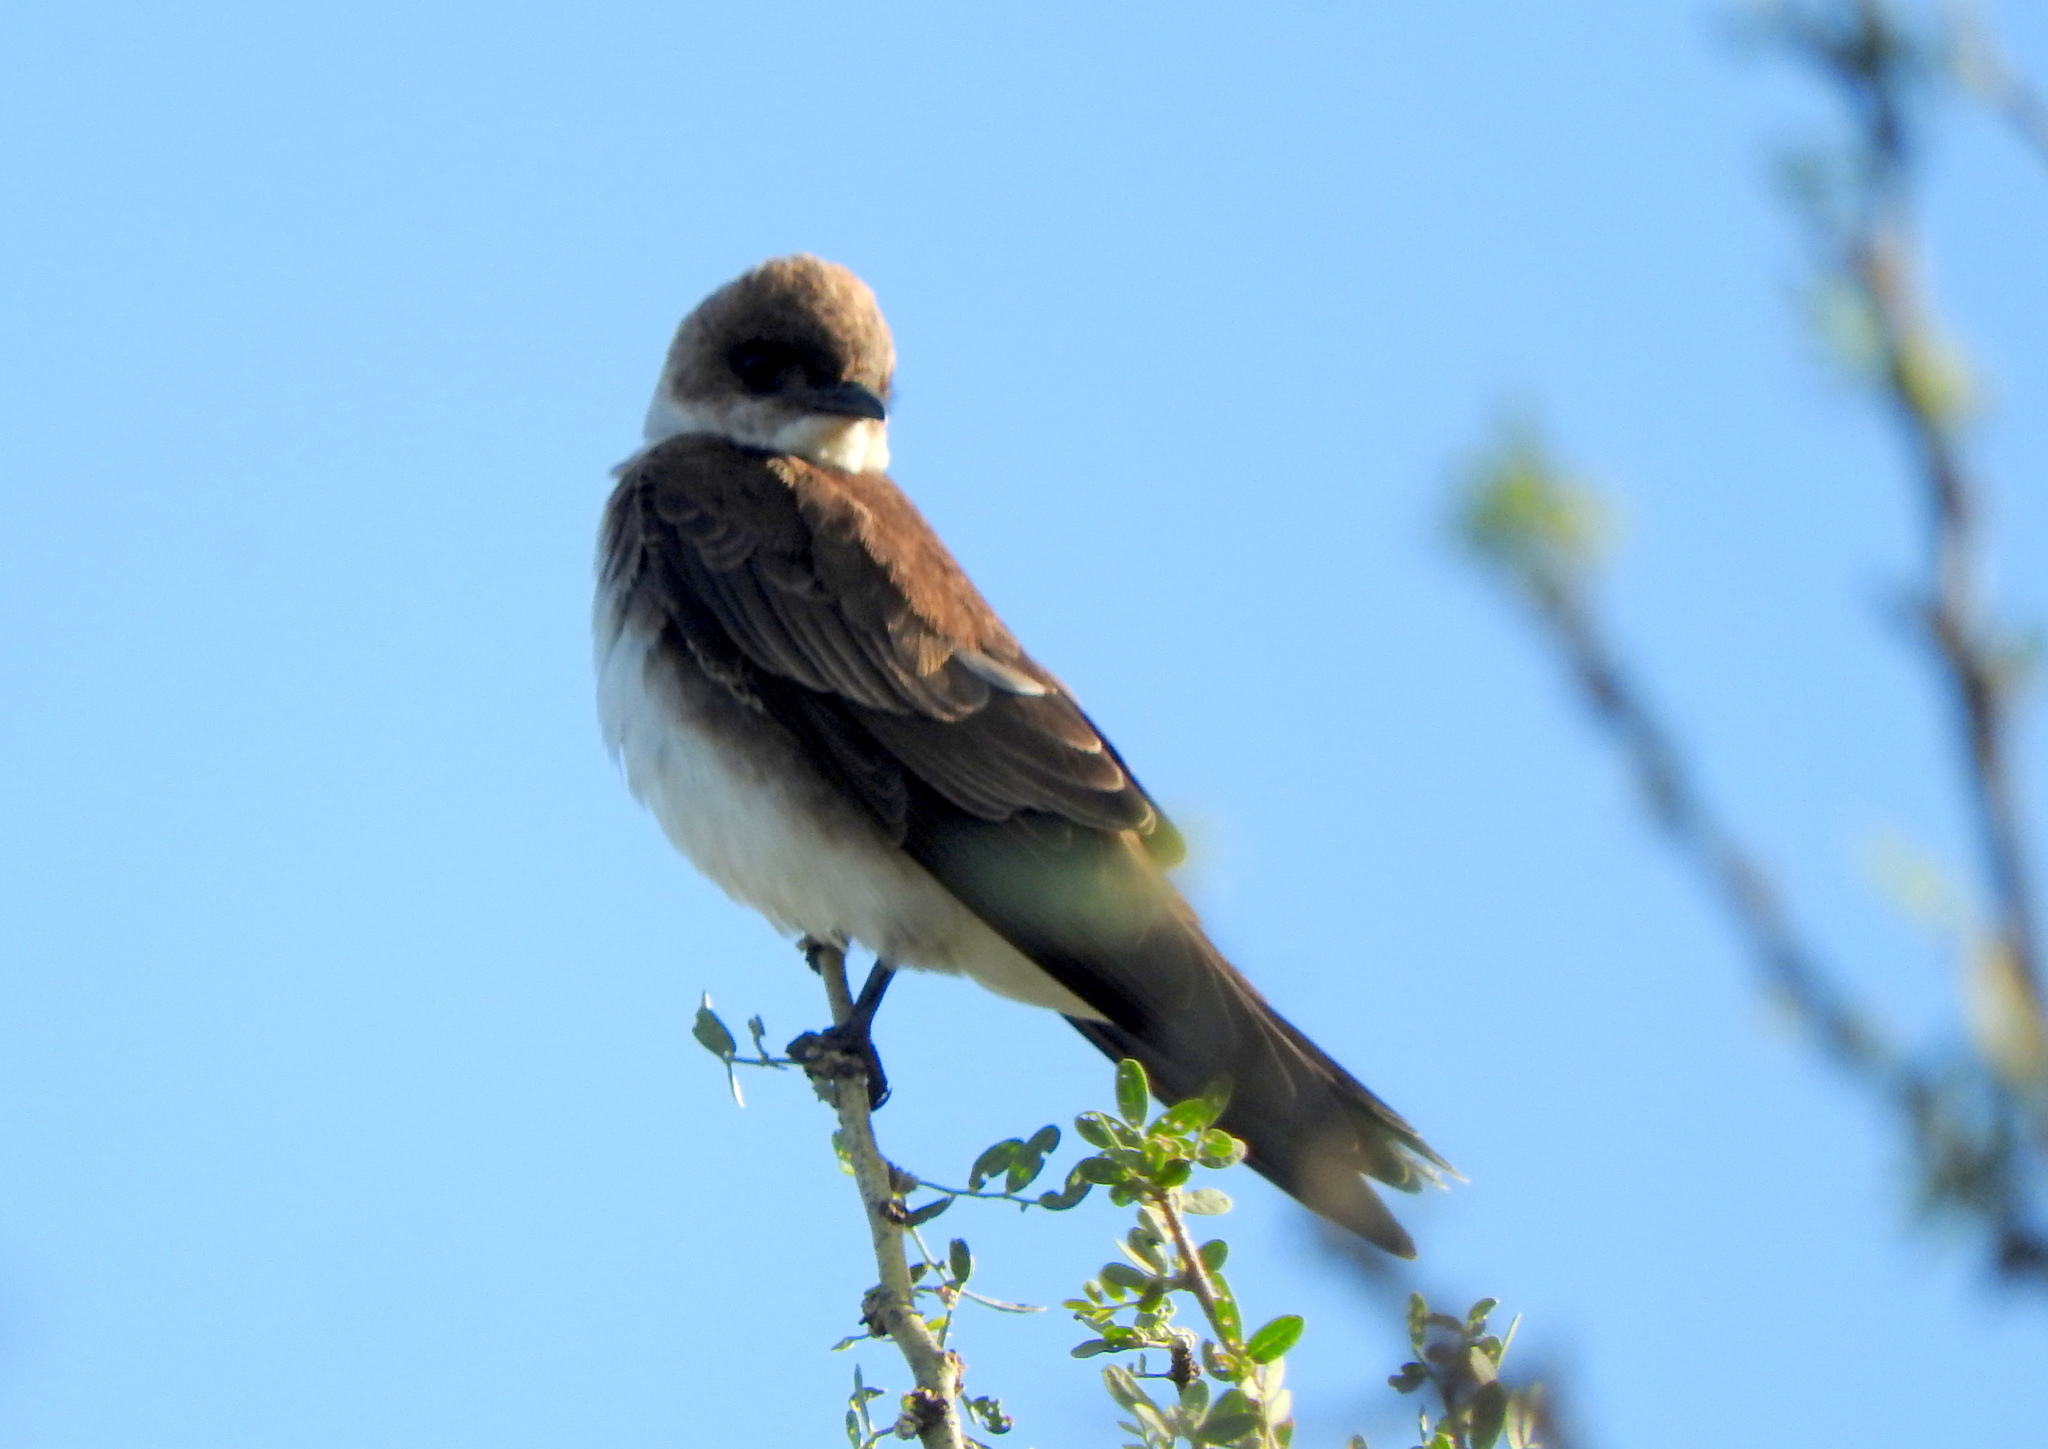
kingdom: Animalia
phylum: Chordata
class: Aves
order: Passeriformes
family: Hirundinidae
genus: Progne
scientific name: Progne tapera
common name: Brown-chested martin
